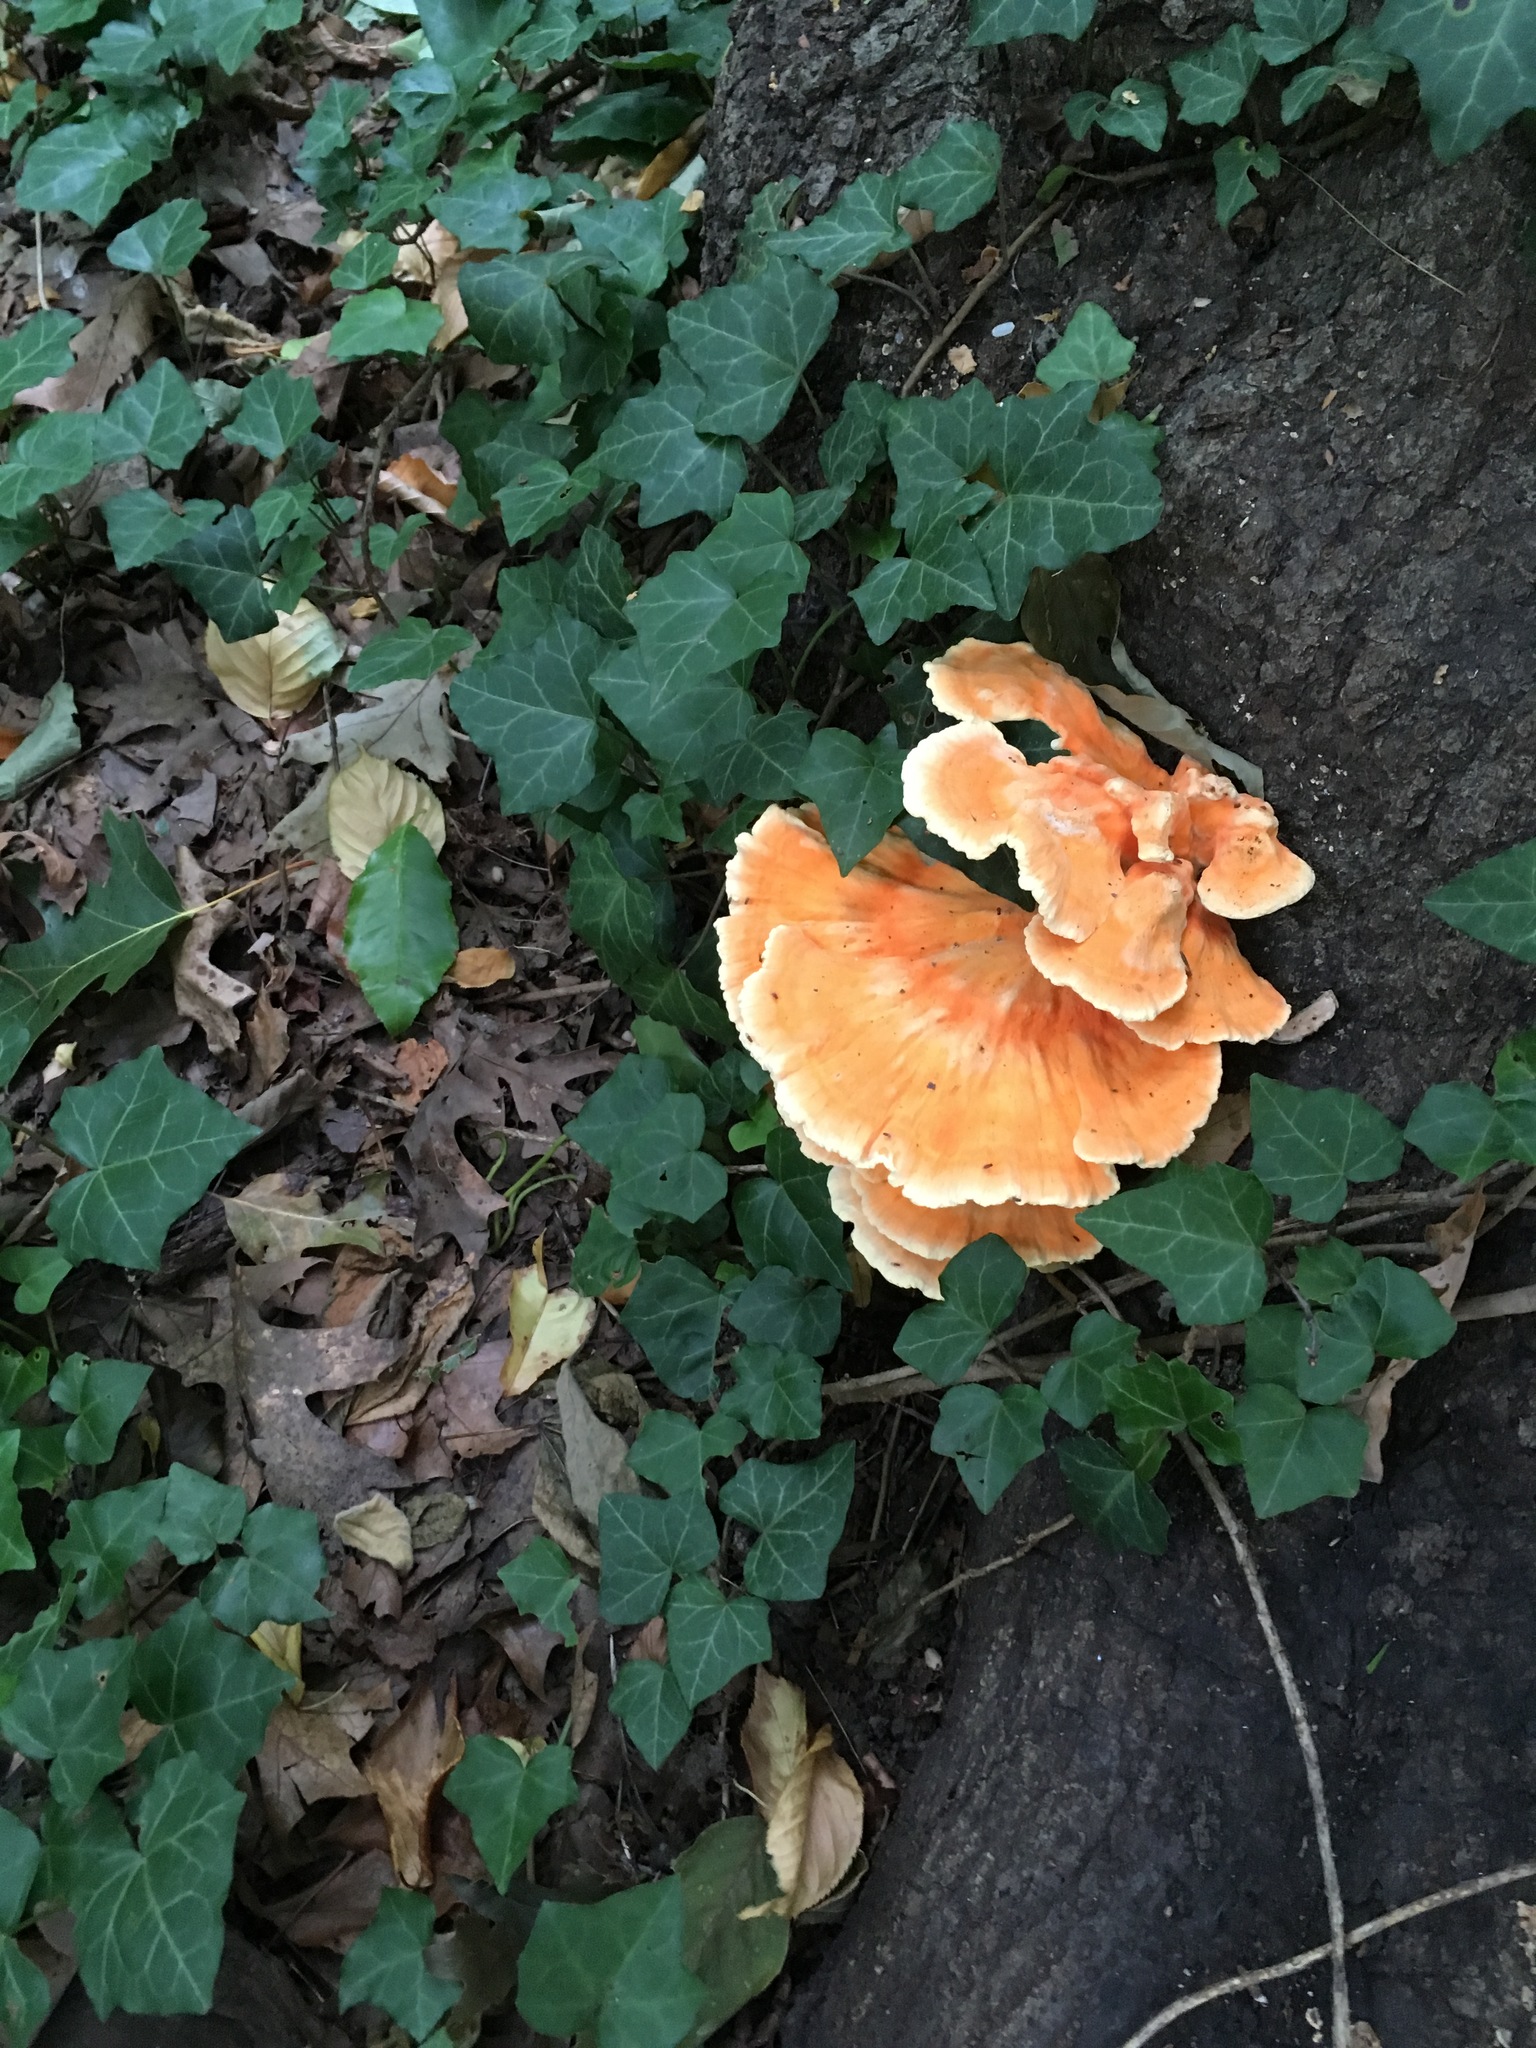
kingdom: Fungi
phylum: Basidiomycota
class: Agaricomycetes
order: Polyporales
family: Laetiporaceae
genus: Laetiporus
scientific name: Laetiporus sulphureus
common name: Chicken of the woods
